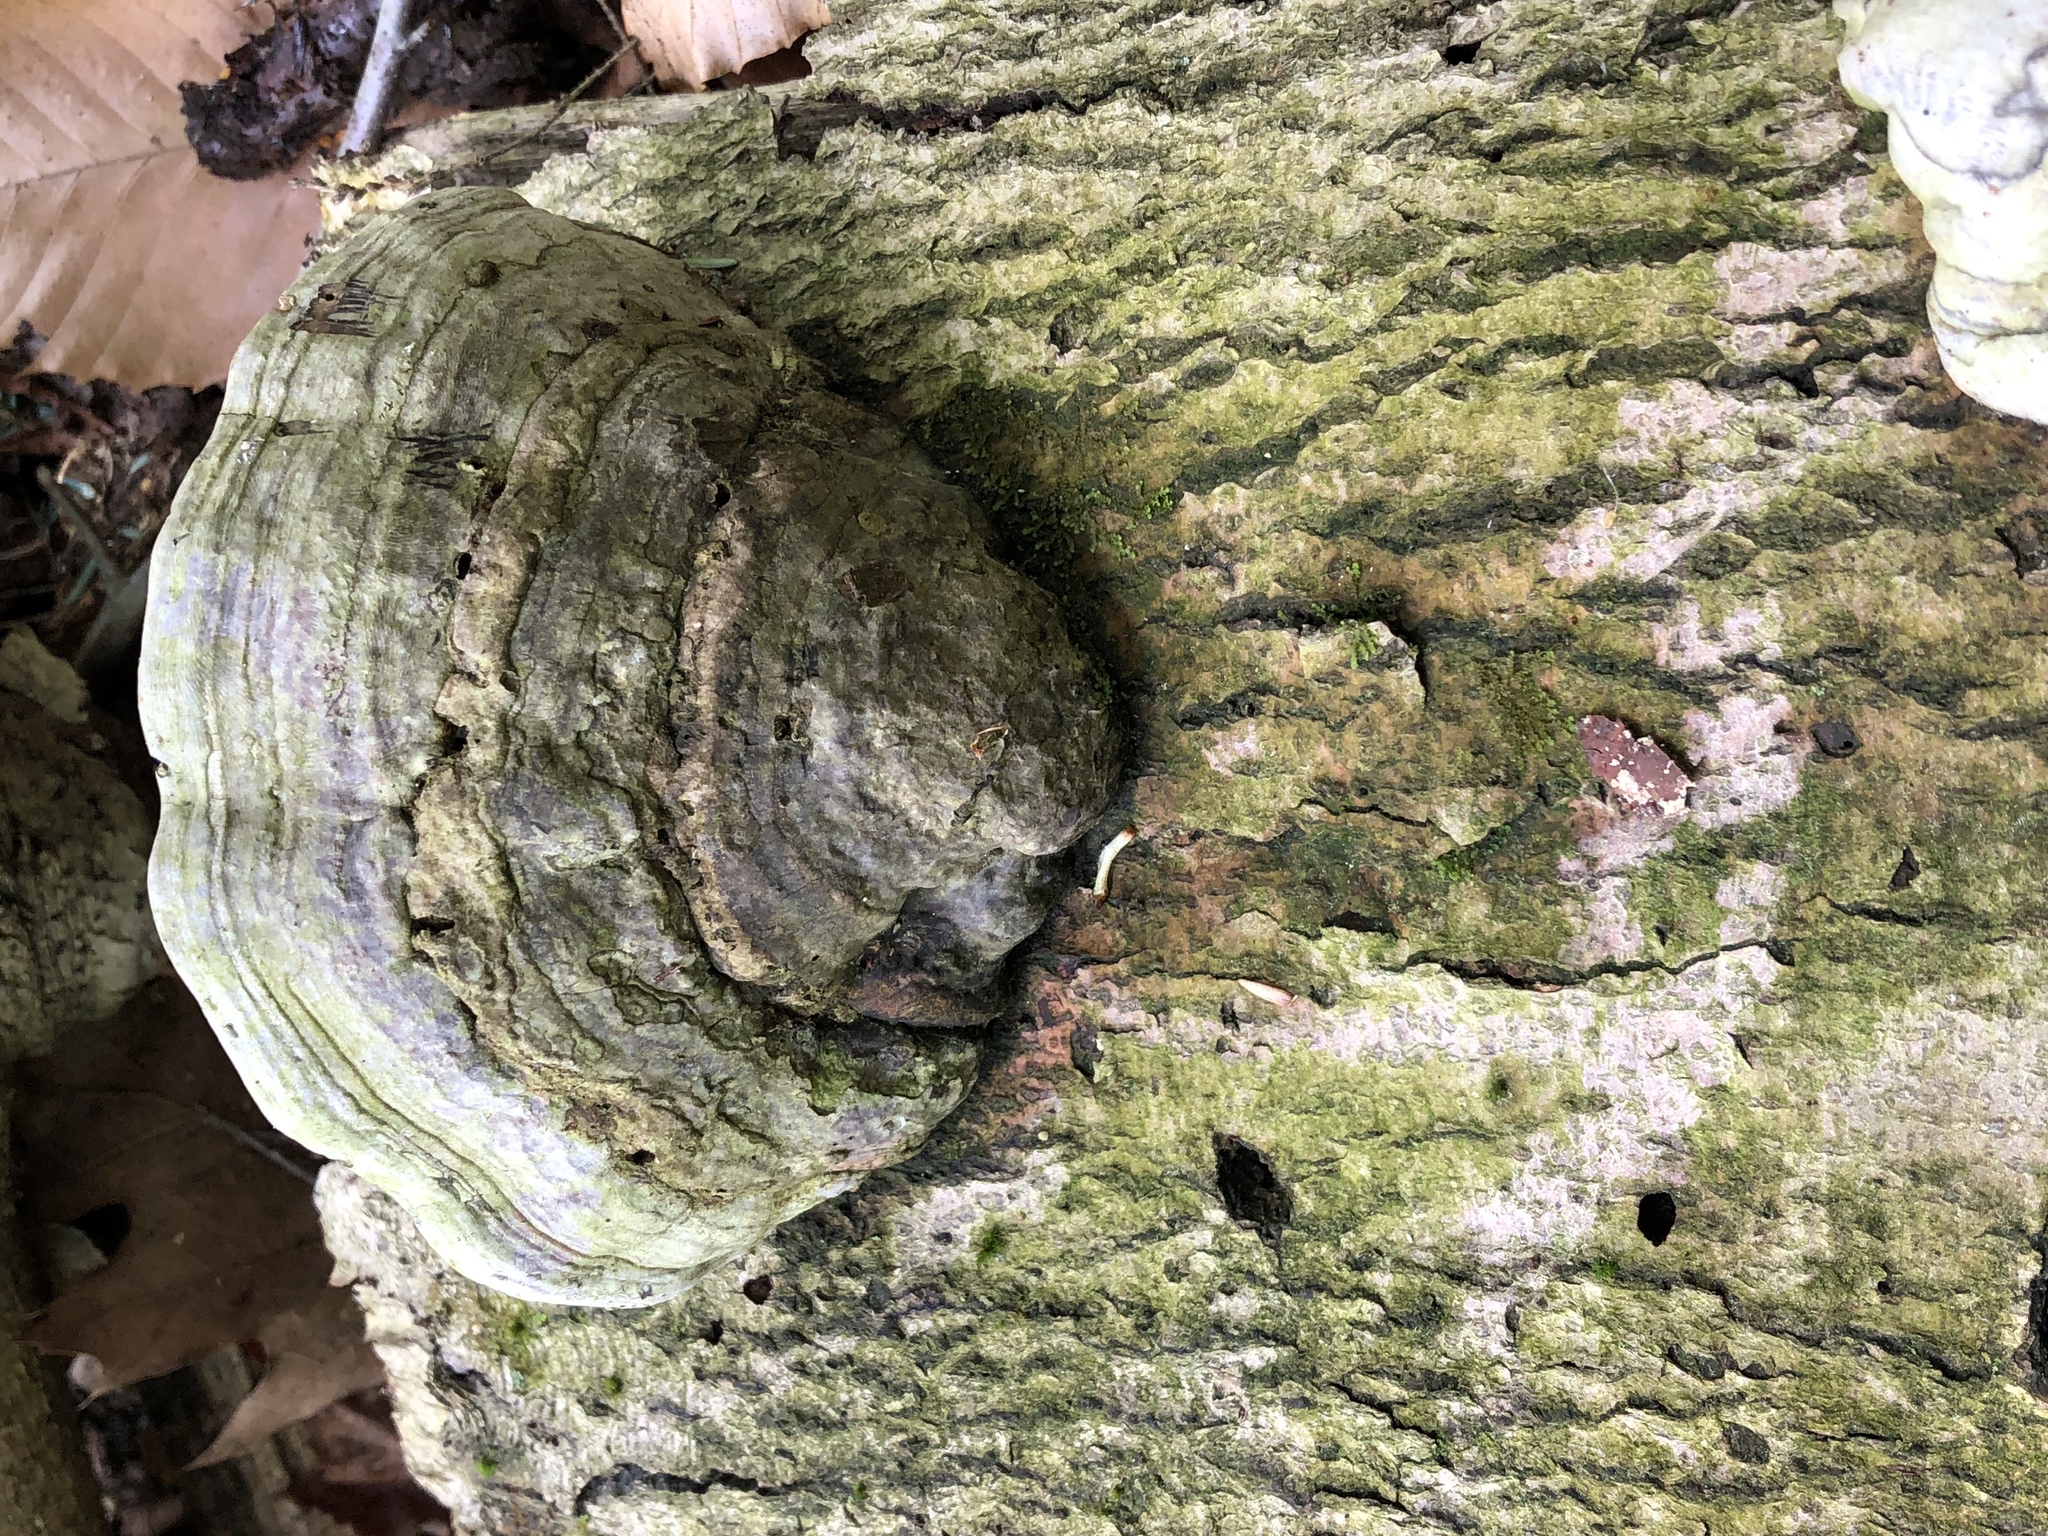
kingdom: Fungi
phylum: Basidiomycota
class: Agaricomycetes
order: Polyporales
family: Polyporaceae
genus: Ganoderma
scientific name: Ganoderma applanatum
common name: Artist's bracket
